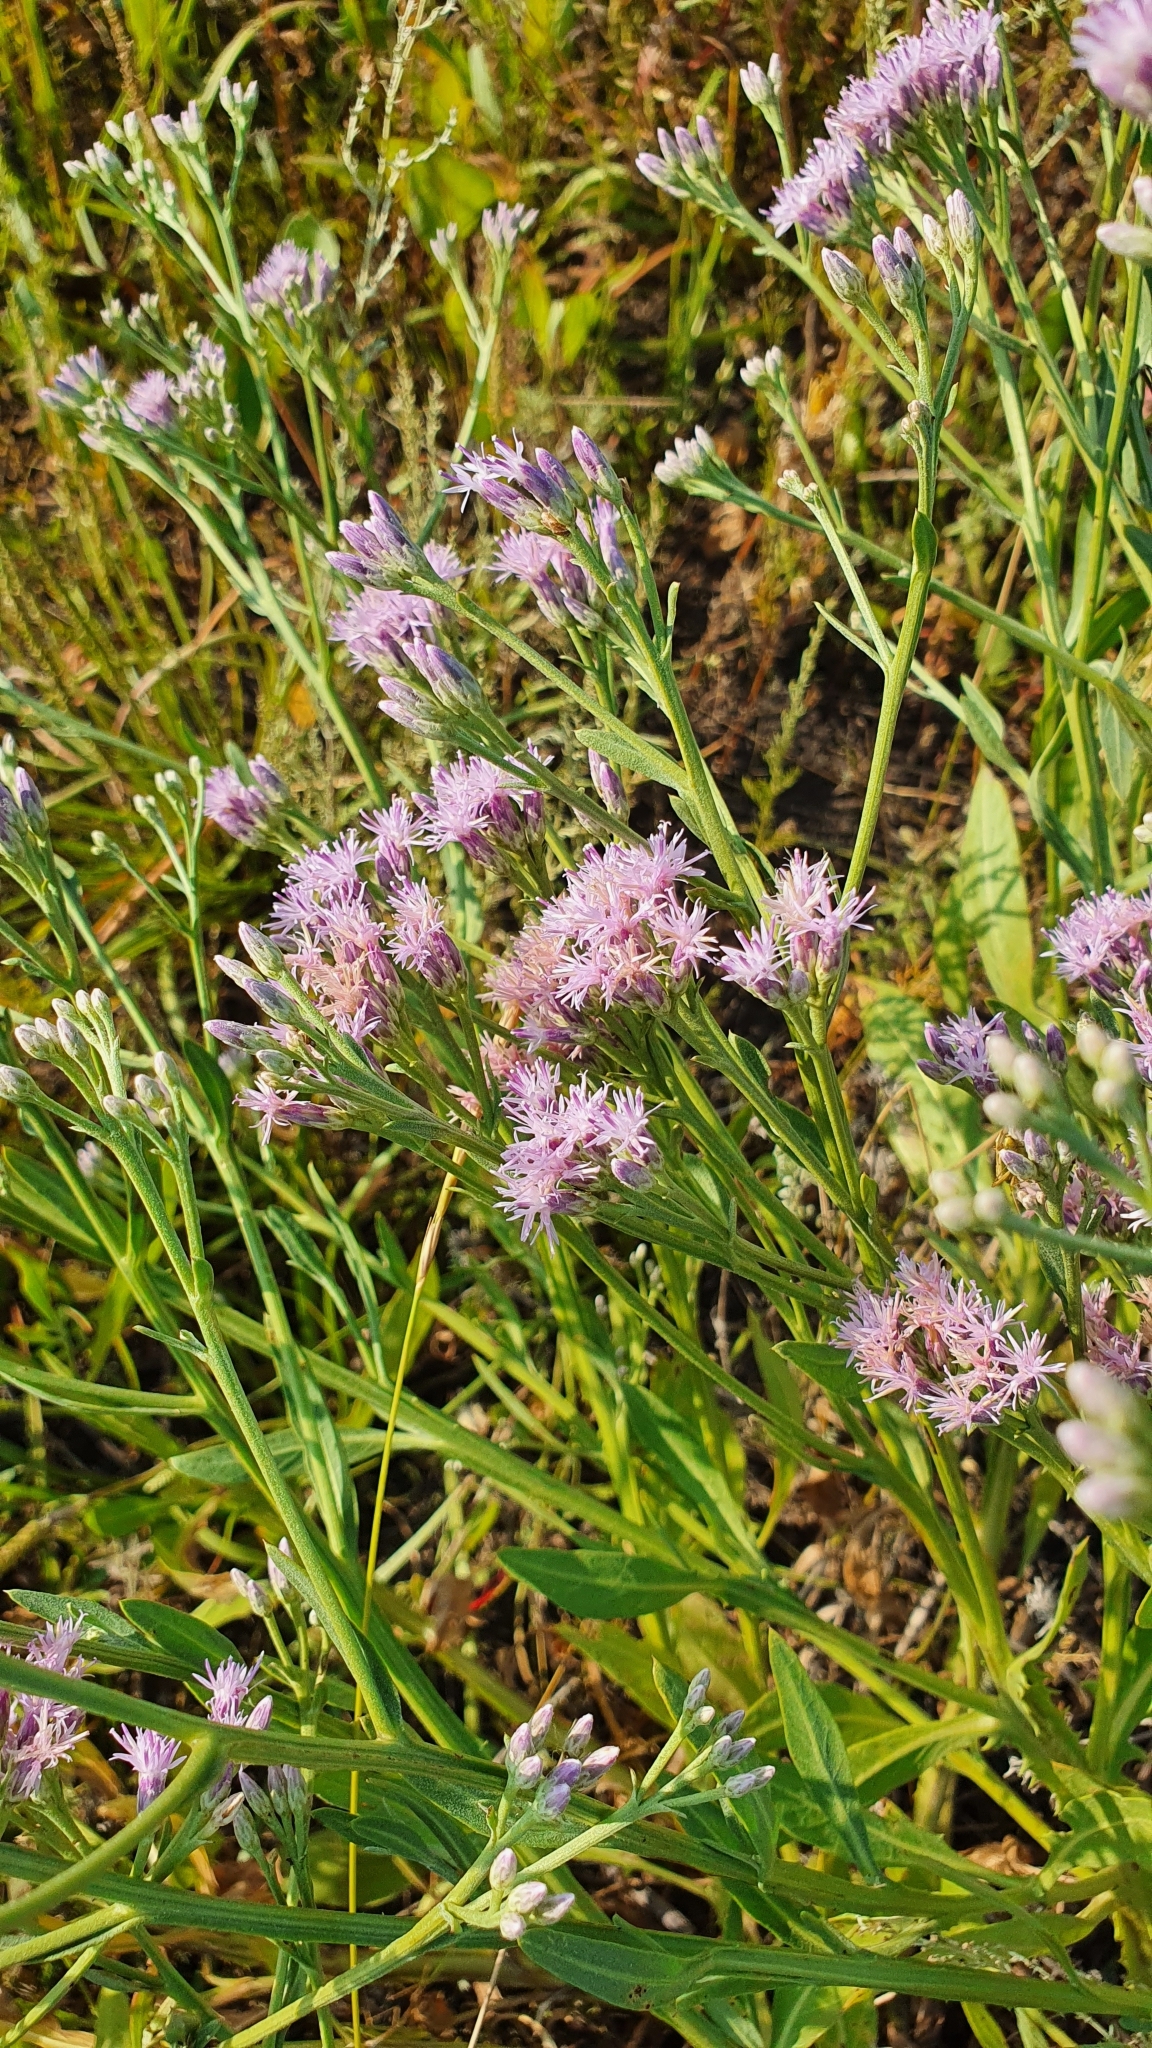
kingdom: Plantae
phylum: Tracheophyta
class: Magnoliopsida
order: Asterales
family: Asteraceae
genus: Saussurea
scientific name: Saussurea salsa
